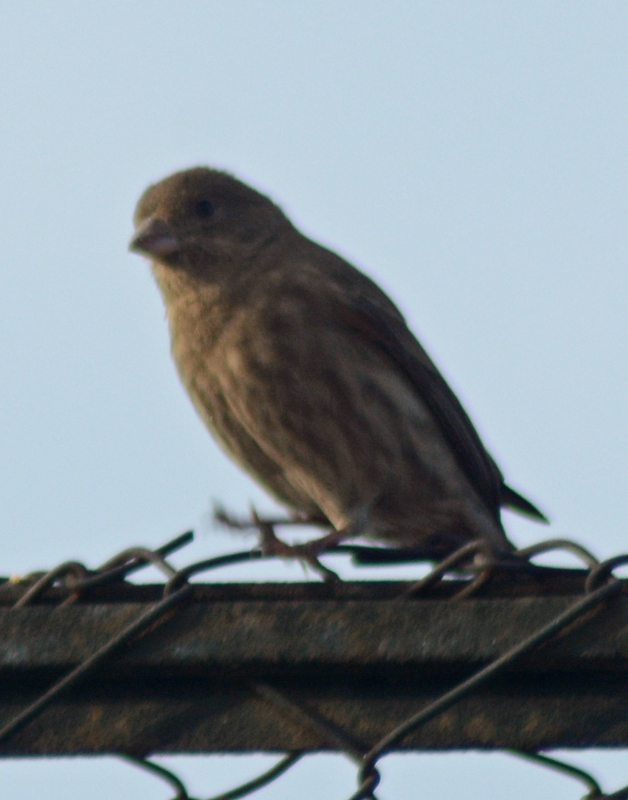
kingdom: Animalia
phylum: Chordata
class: Aves
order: Passeriformes
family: Fringillidae
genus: Haemorhous
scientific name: Haemorhous mexicanus
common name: House finch
